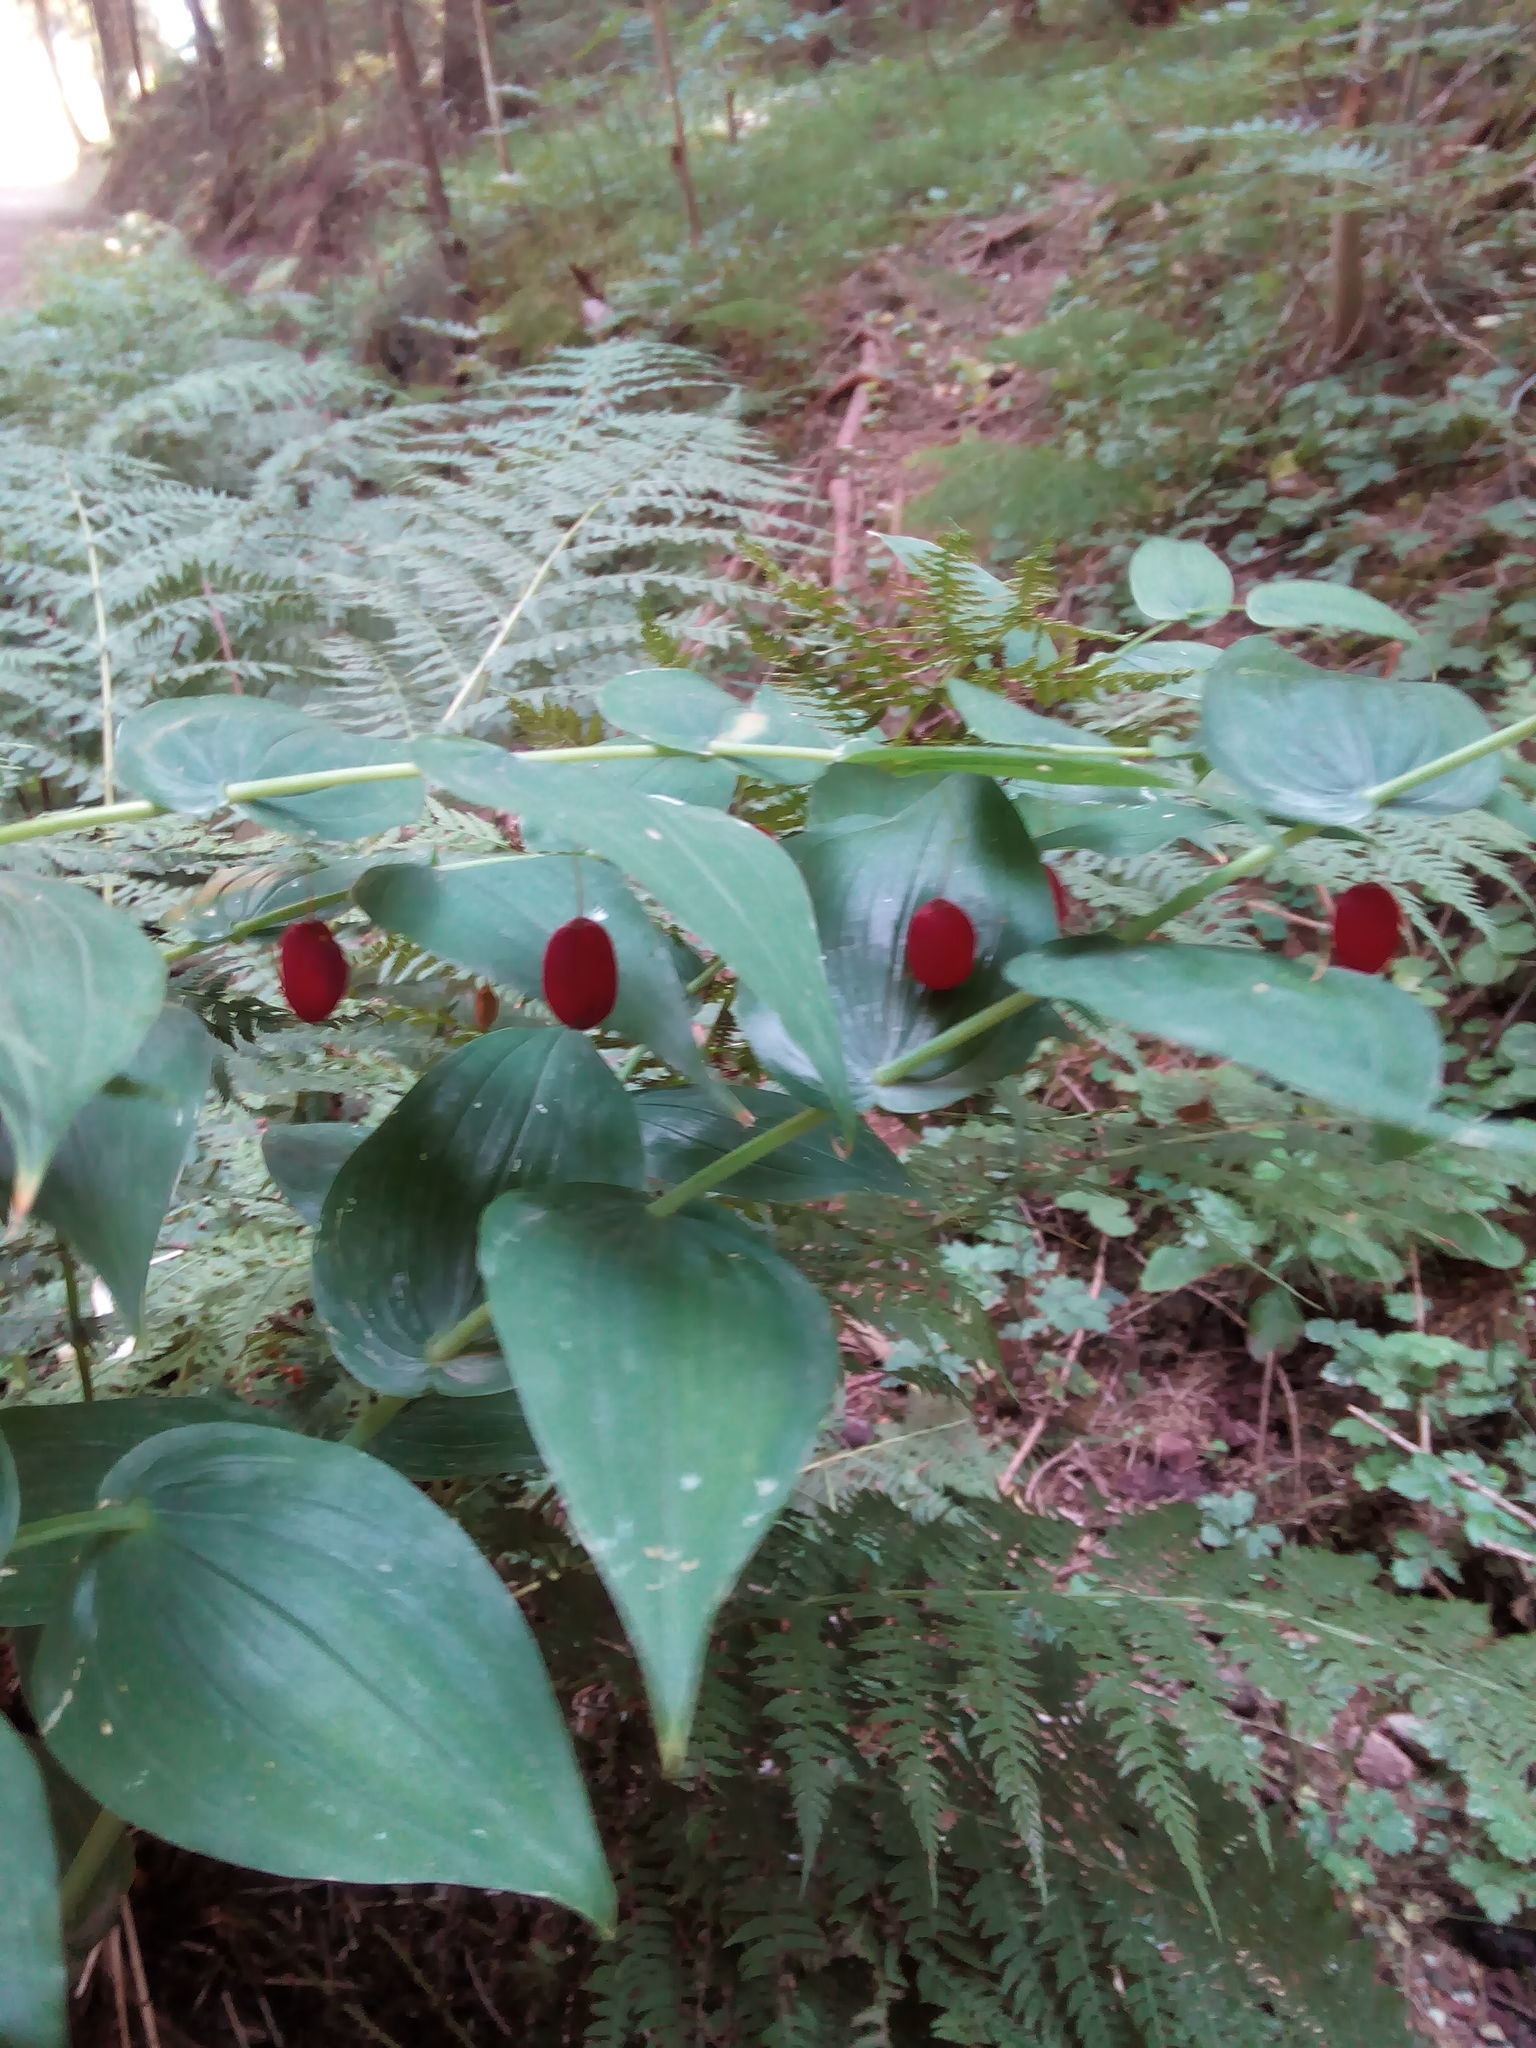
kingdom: Plantae
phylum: Tracheophyta
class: Liliopsida
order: Liliales
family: Liliaceae
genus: Streptopus
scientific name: Streptopus amplexifolius
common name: Clasp twisted stalk
